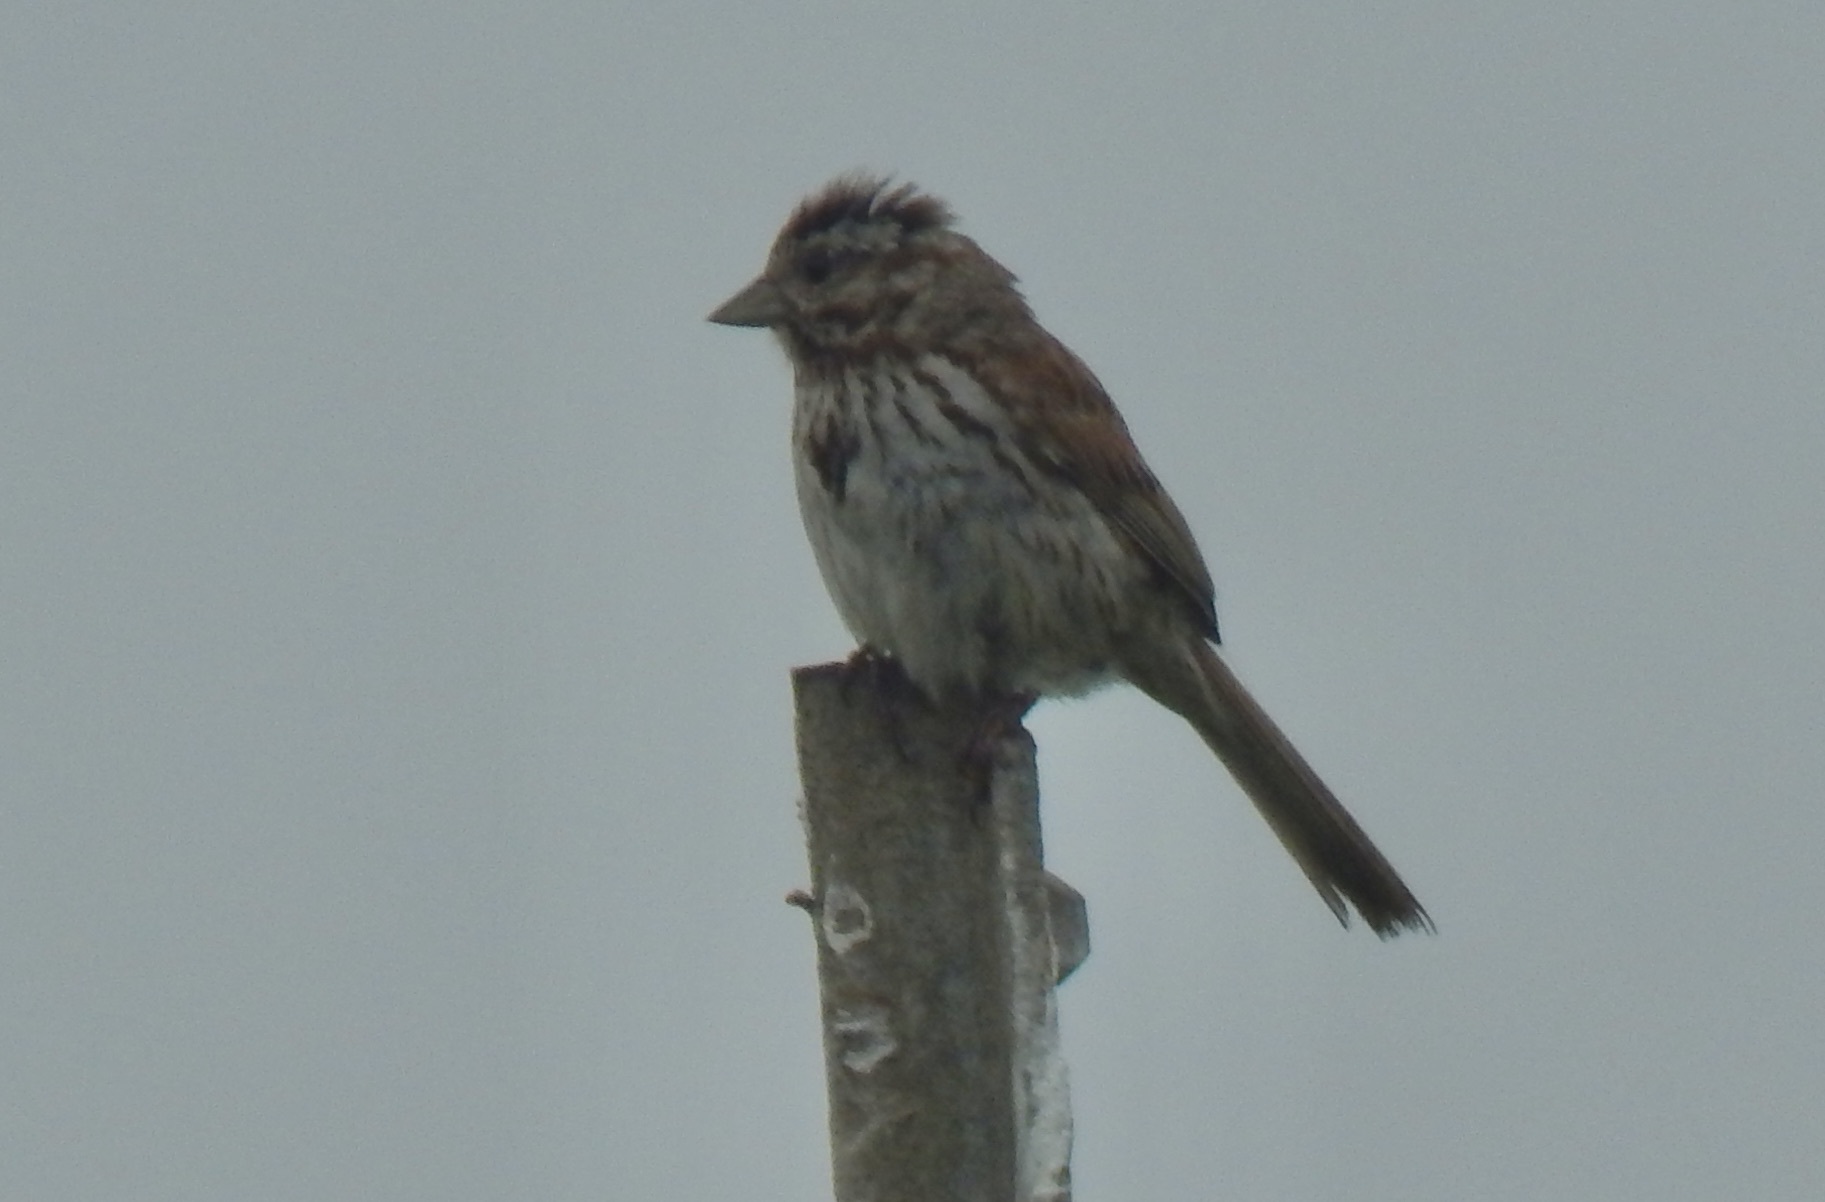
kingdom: Animalia
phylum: Chordata
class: Aves
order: Passeriformes
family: Passerellidae
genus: Melospiza
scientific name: Melospiza melodia
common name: Song sparrow
